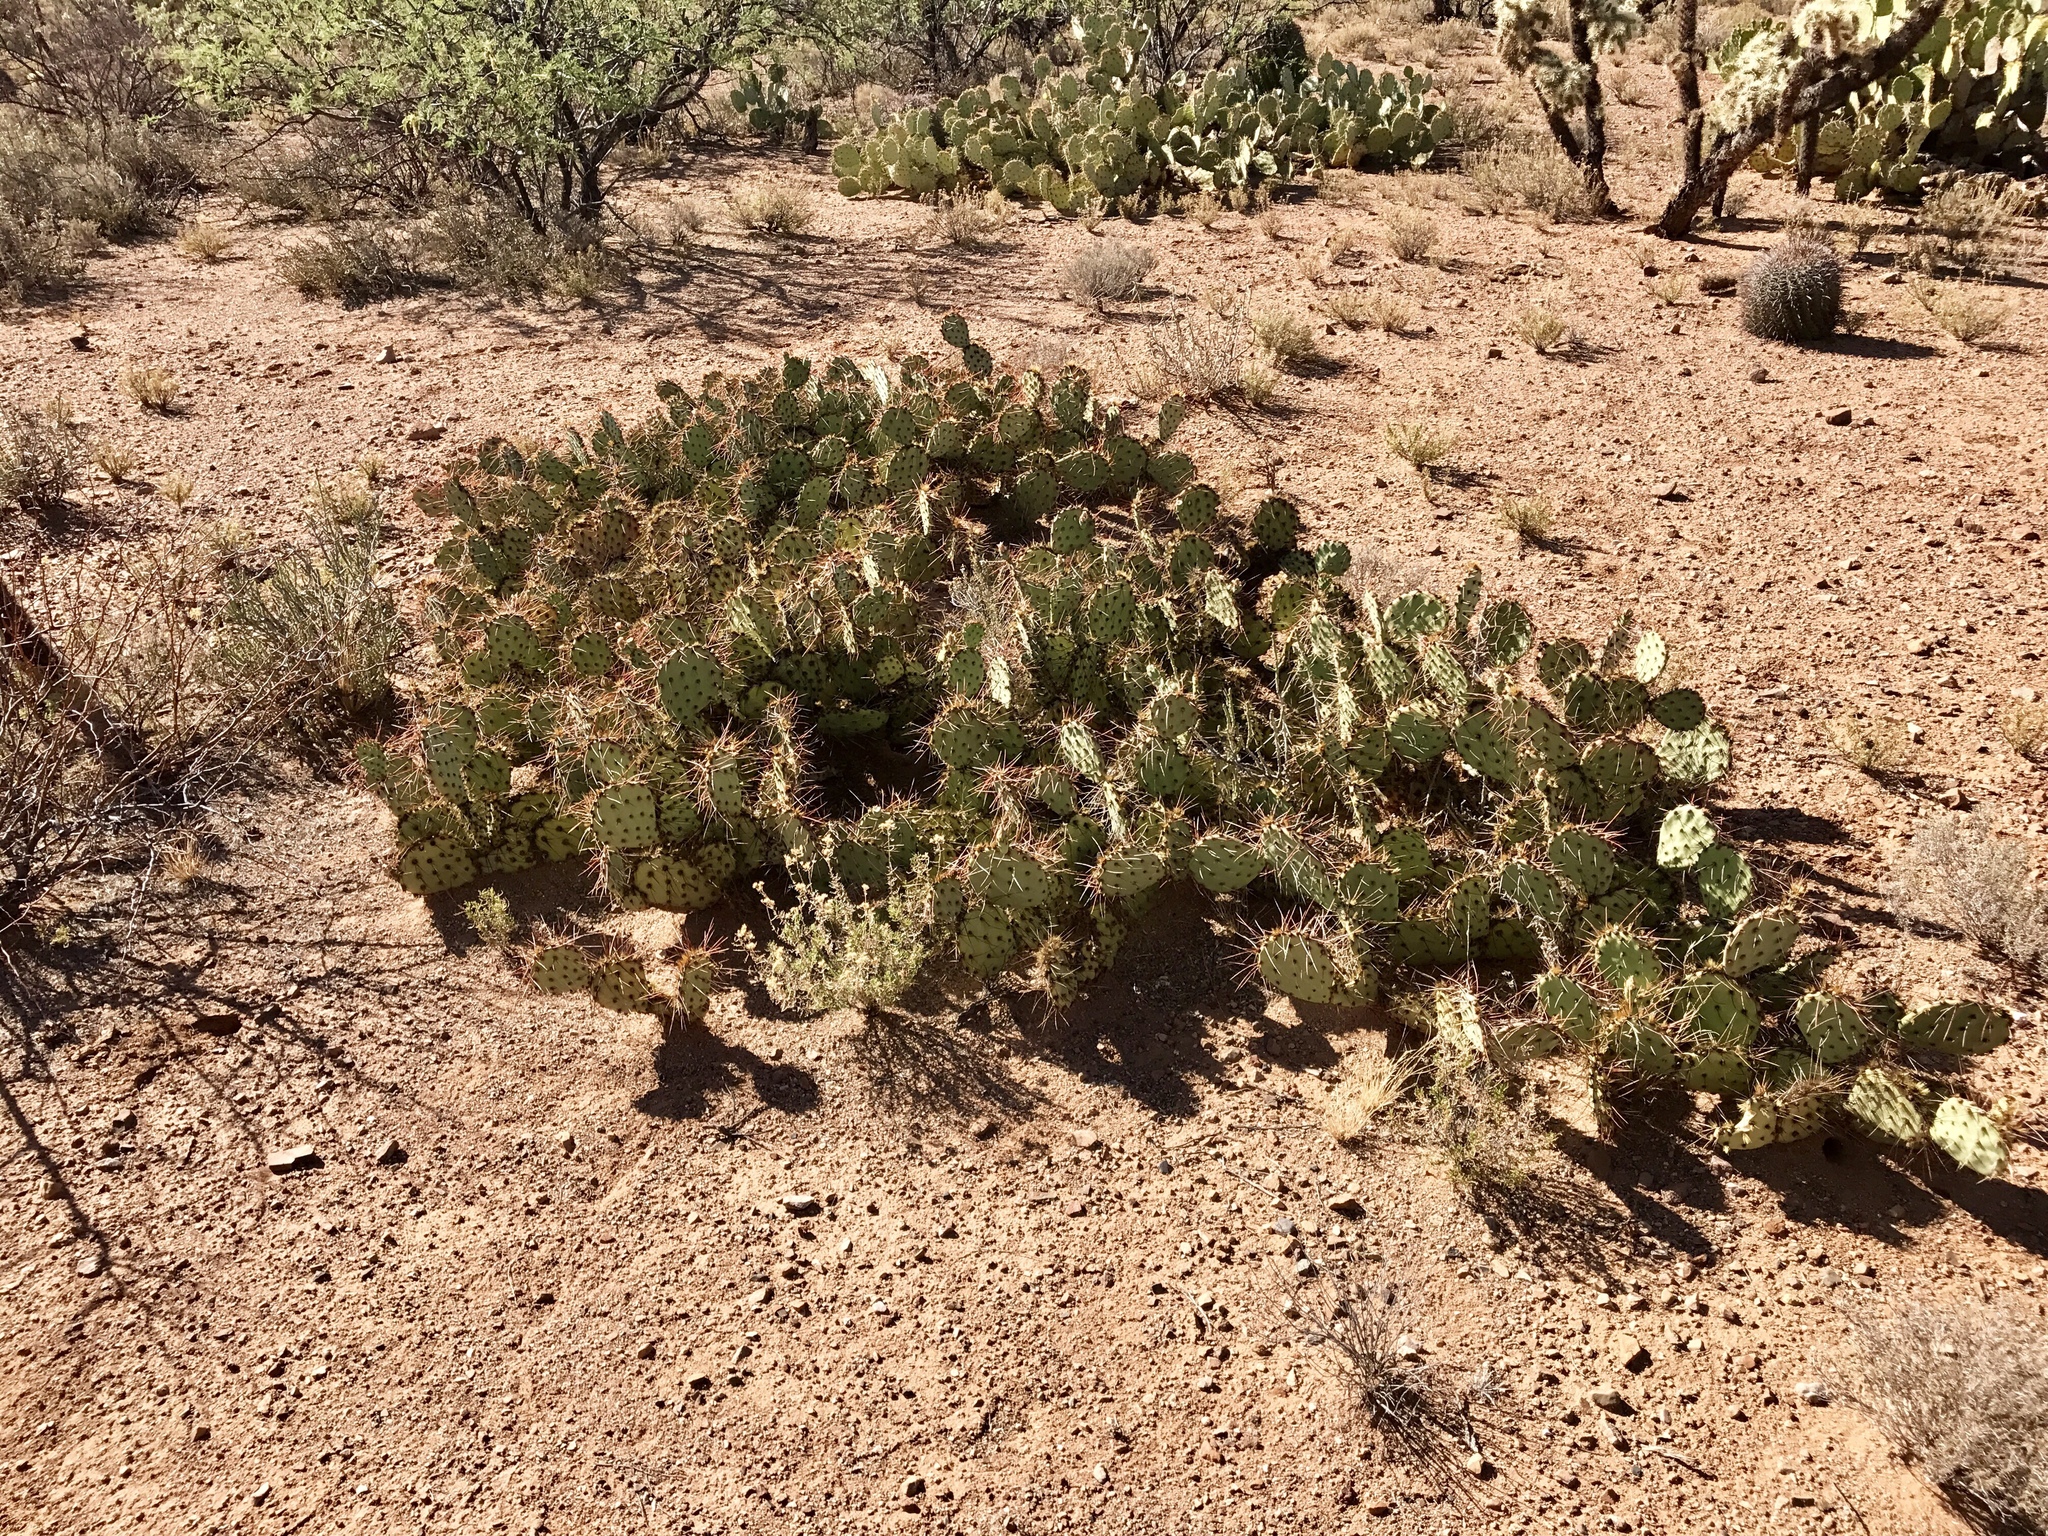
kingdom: Plantae
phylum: Tracheophyta
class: Magnoliopsida
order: Caryophyllales
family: Cactaceae
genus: Opuntia
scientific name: Opuntia phaeacantha
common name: New mexico prickly-pear
